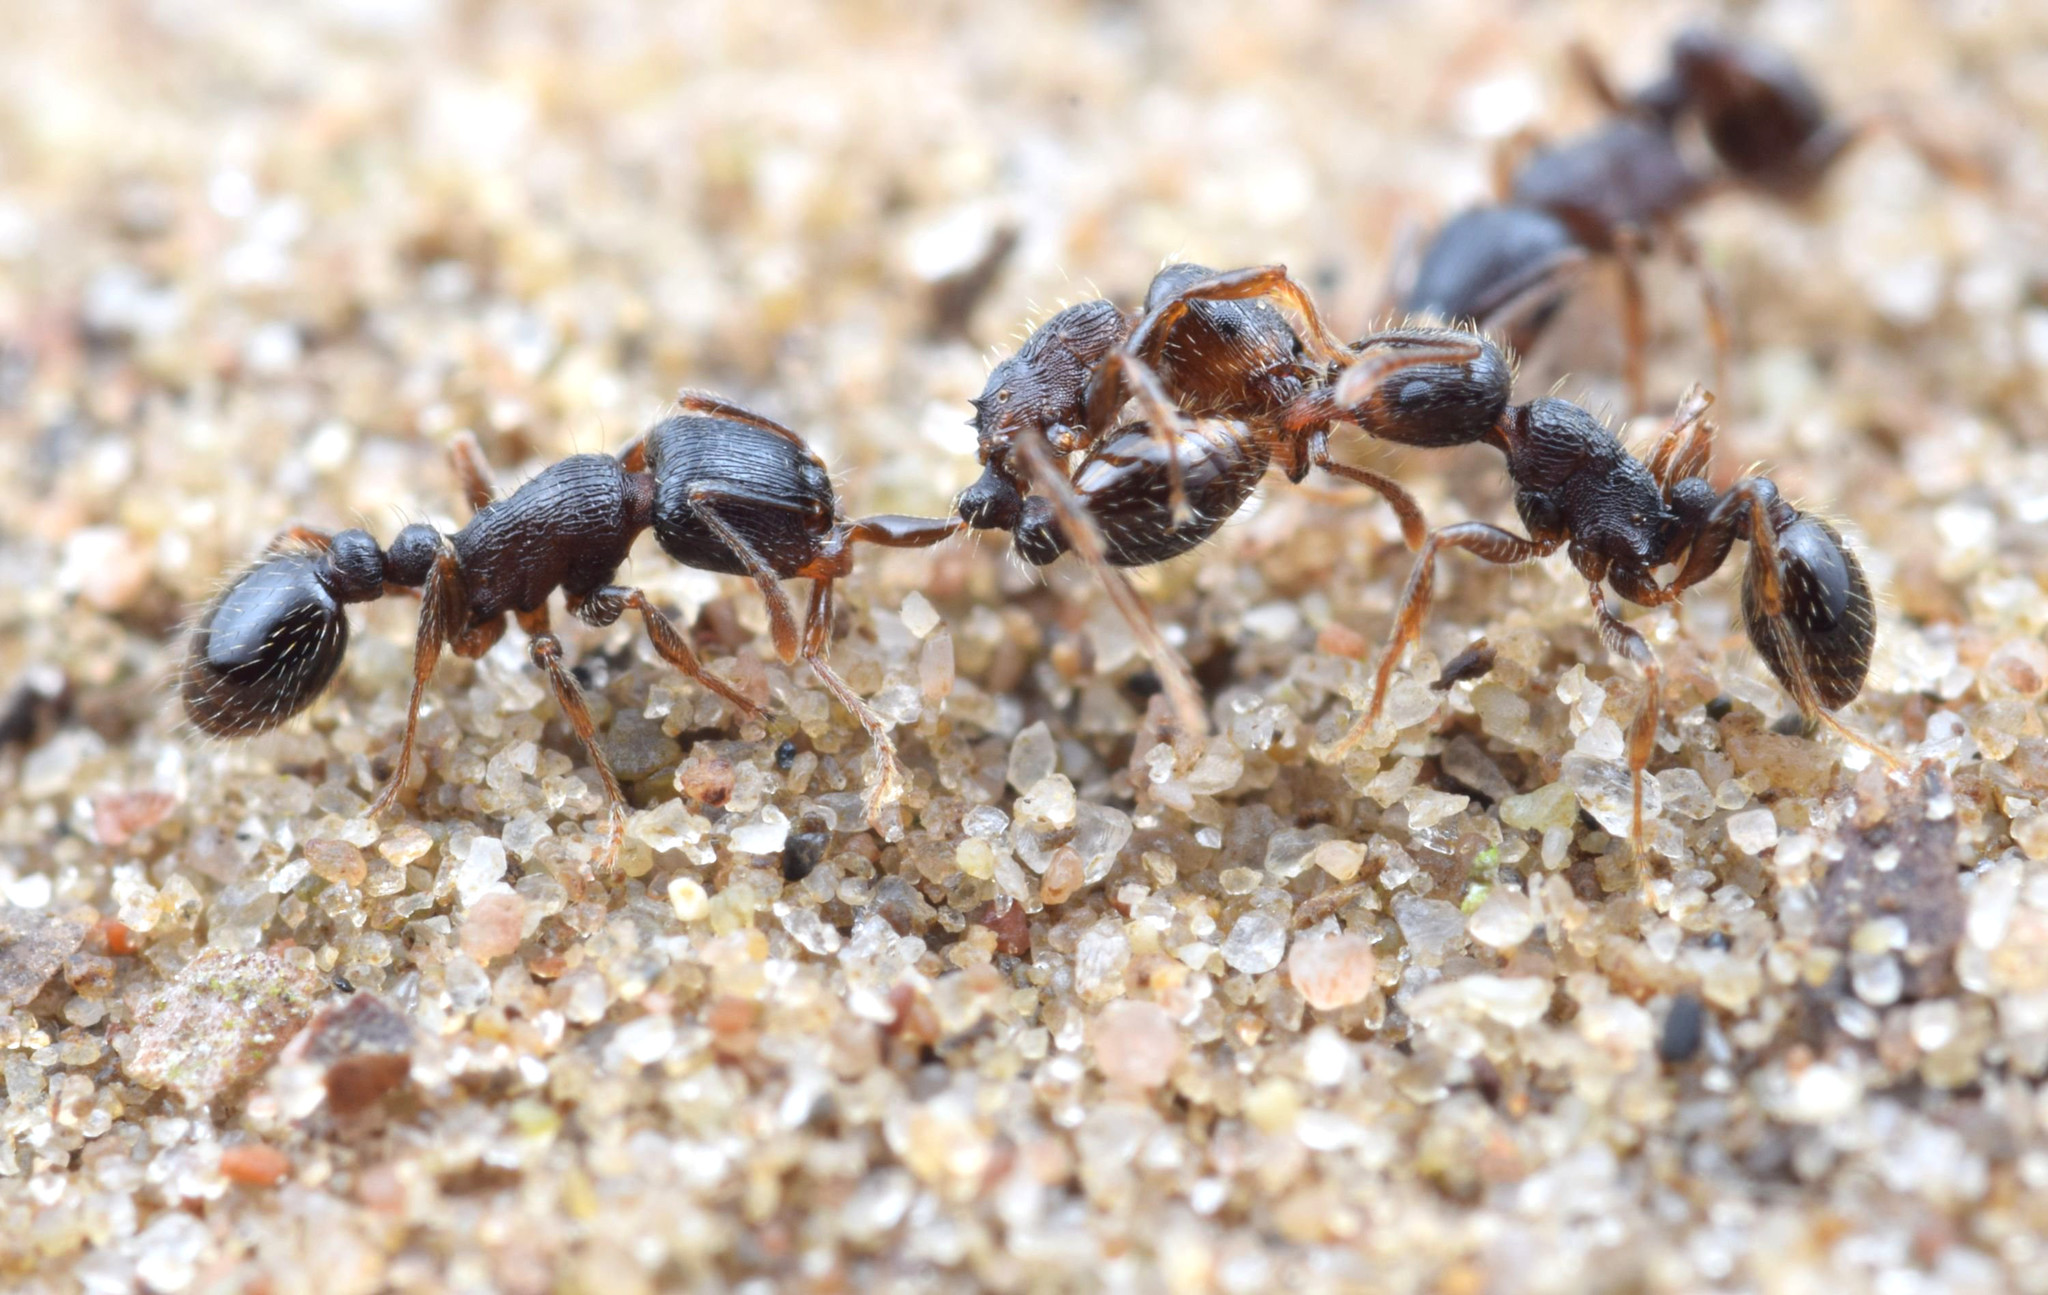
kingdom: Animalia
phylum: Arthropoda
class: Insecta
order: Hymenoptera
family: Formicidae
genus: Tetramorium
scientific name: Tetramorium
